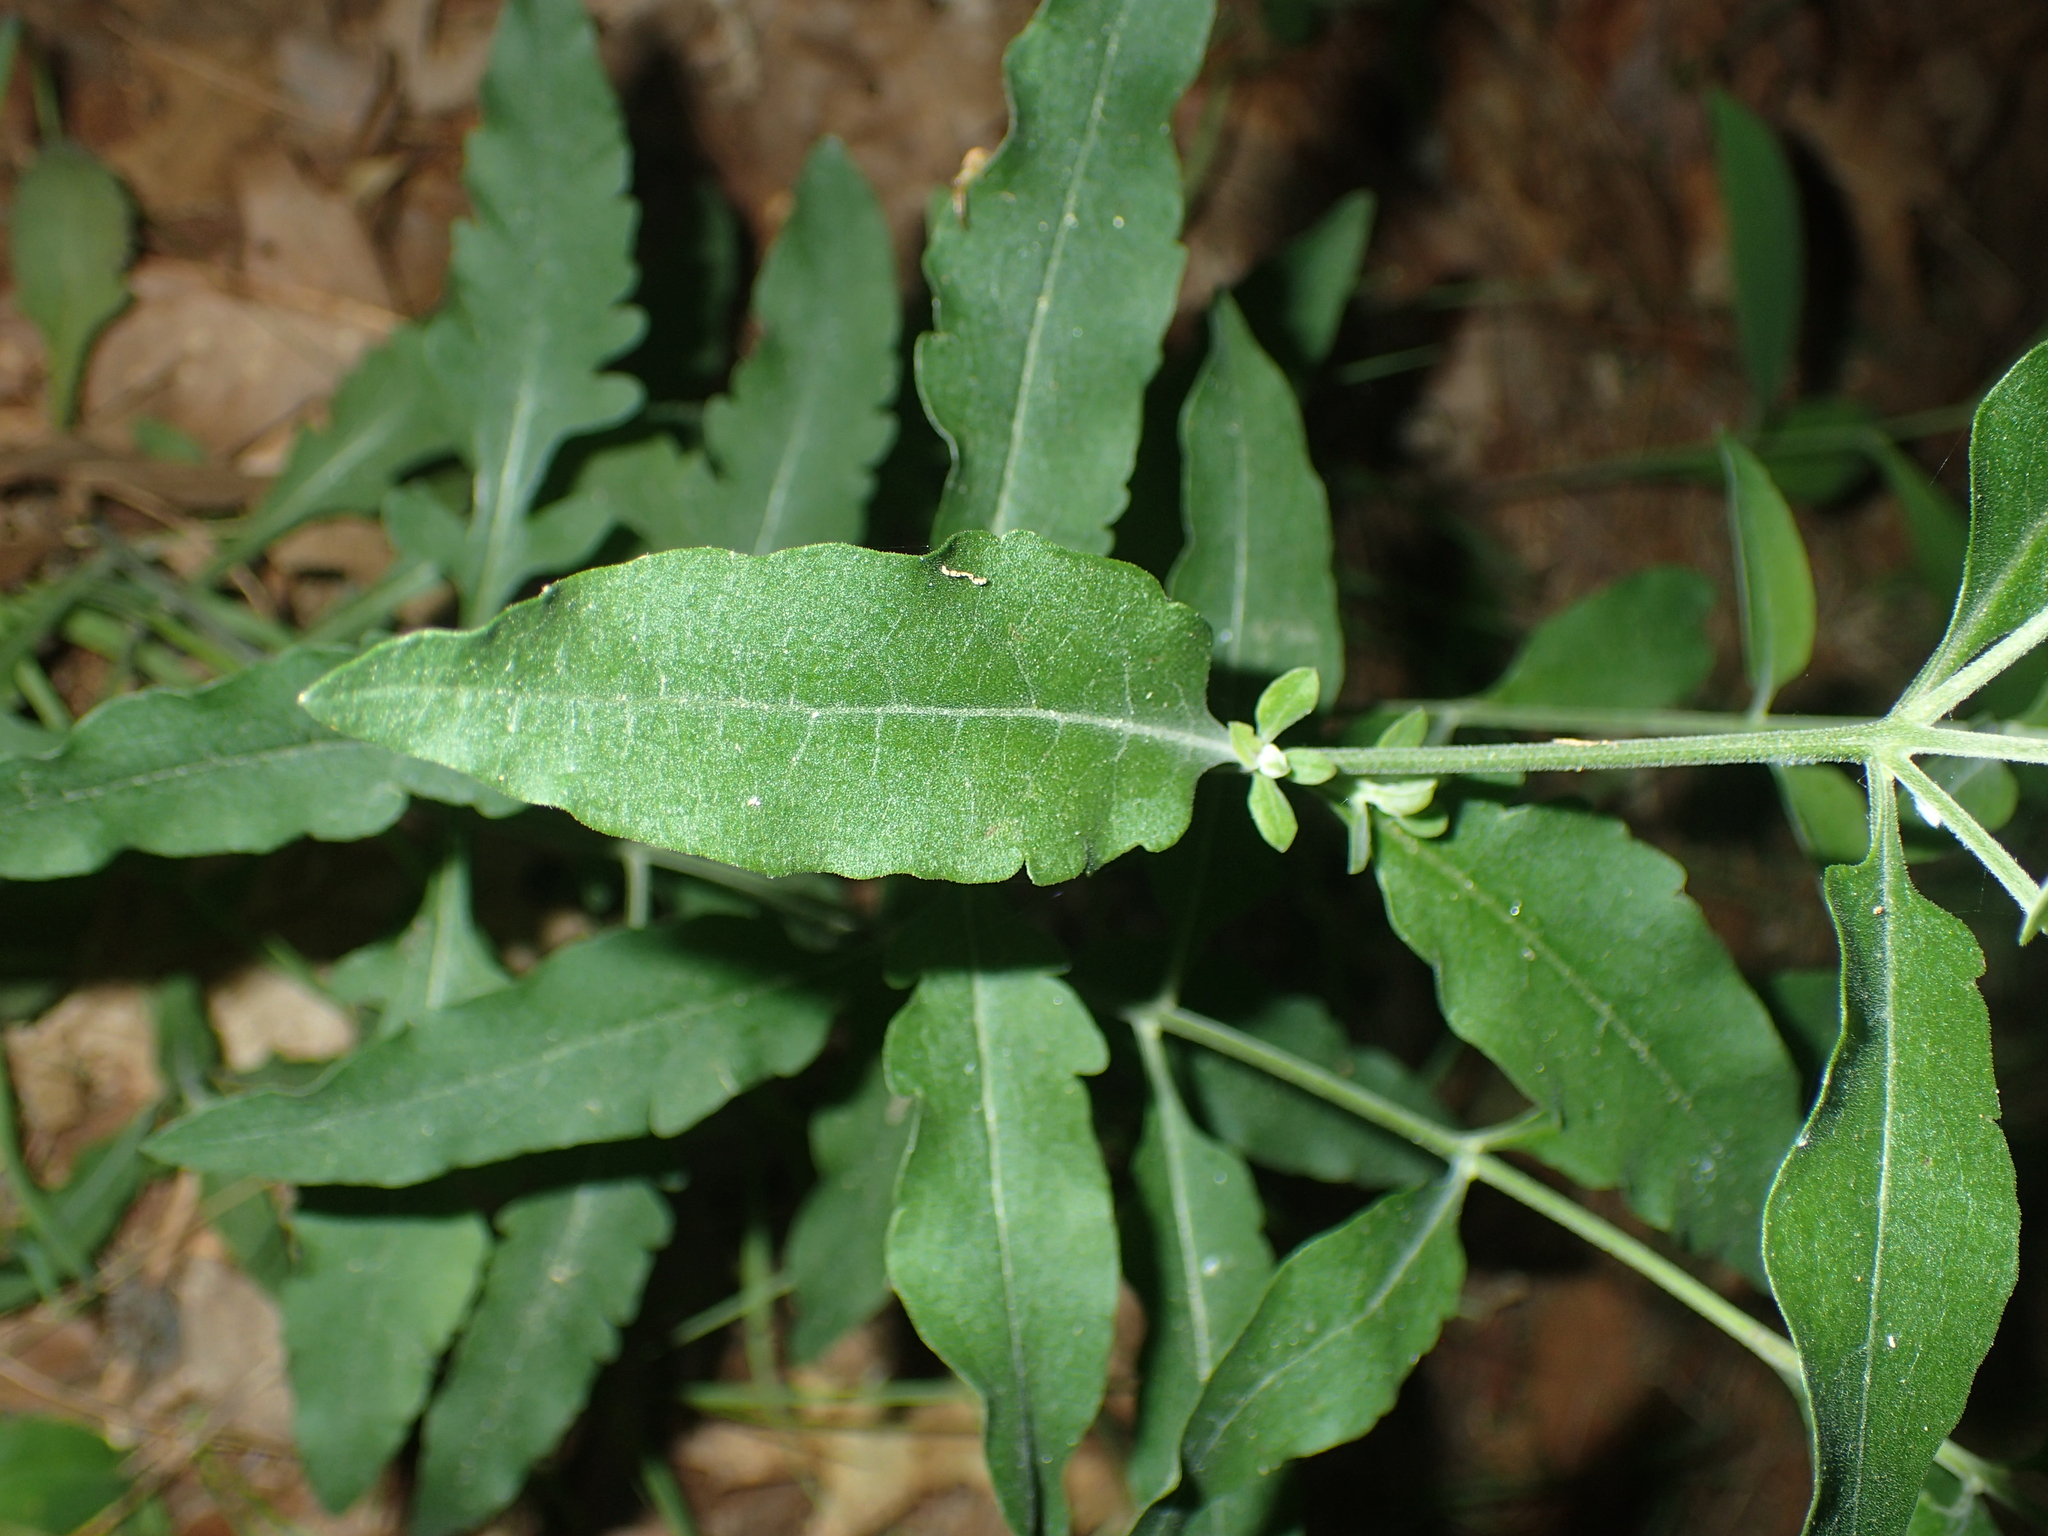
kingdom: Plantae
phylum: Tracheophyta
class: Magnoliopsida
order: Lamiales
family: Orobanchaceae
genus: Aureolaria
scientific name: Aureolaria virginica
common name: Downy false foxglove
